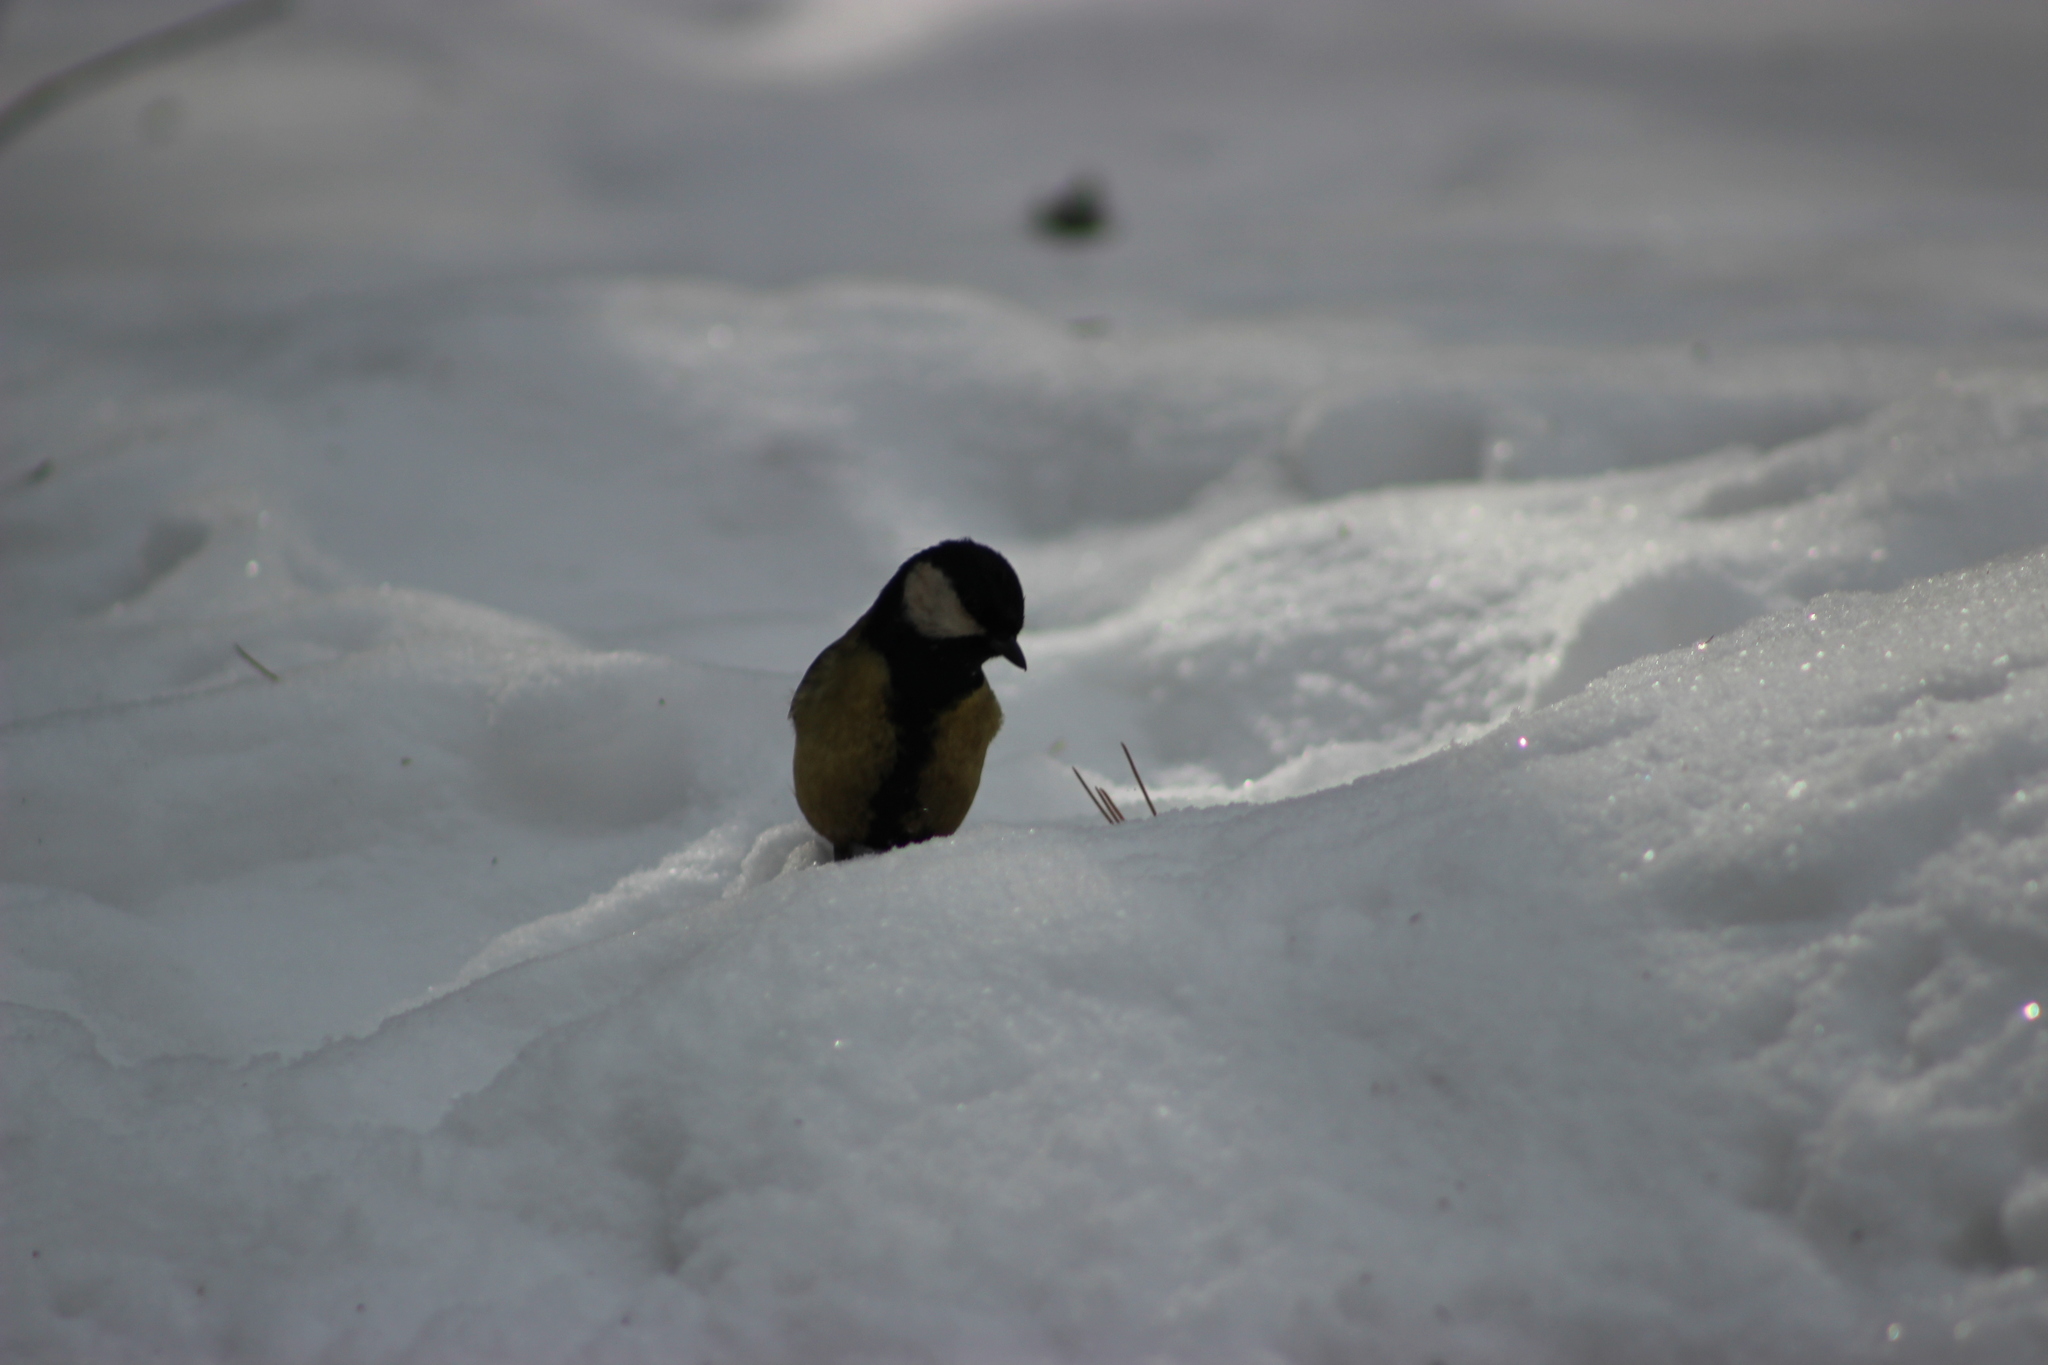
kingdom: Animalia
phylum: Chordata
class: Aves
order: Passeriformes
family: Paridae
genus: Parus
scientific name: Parus major
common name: Great tit
